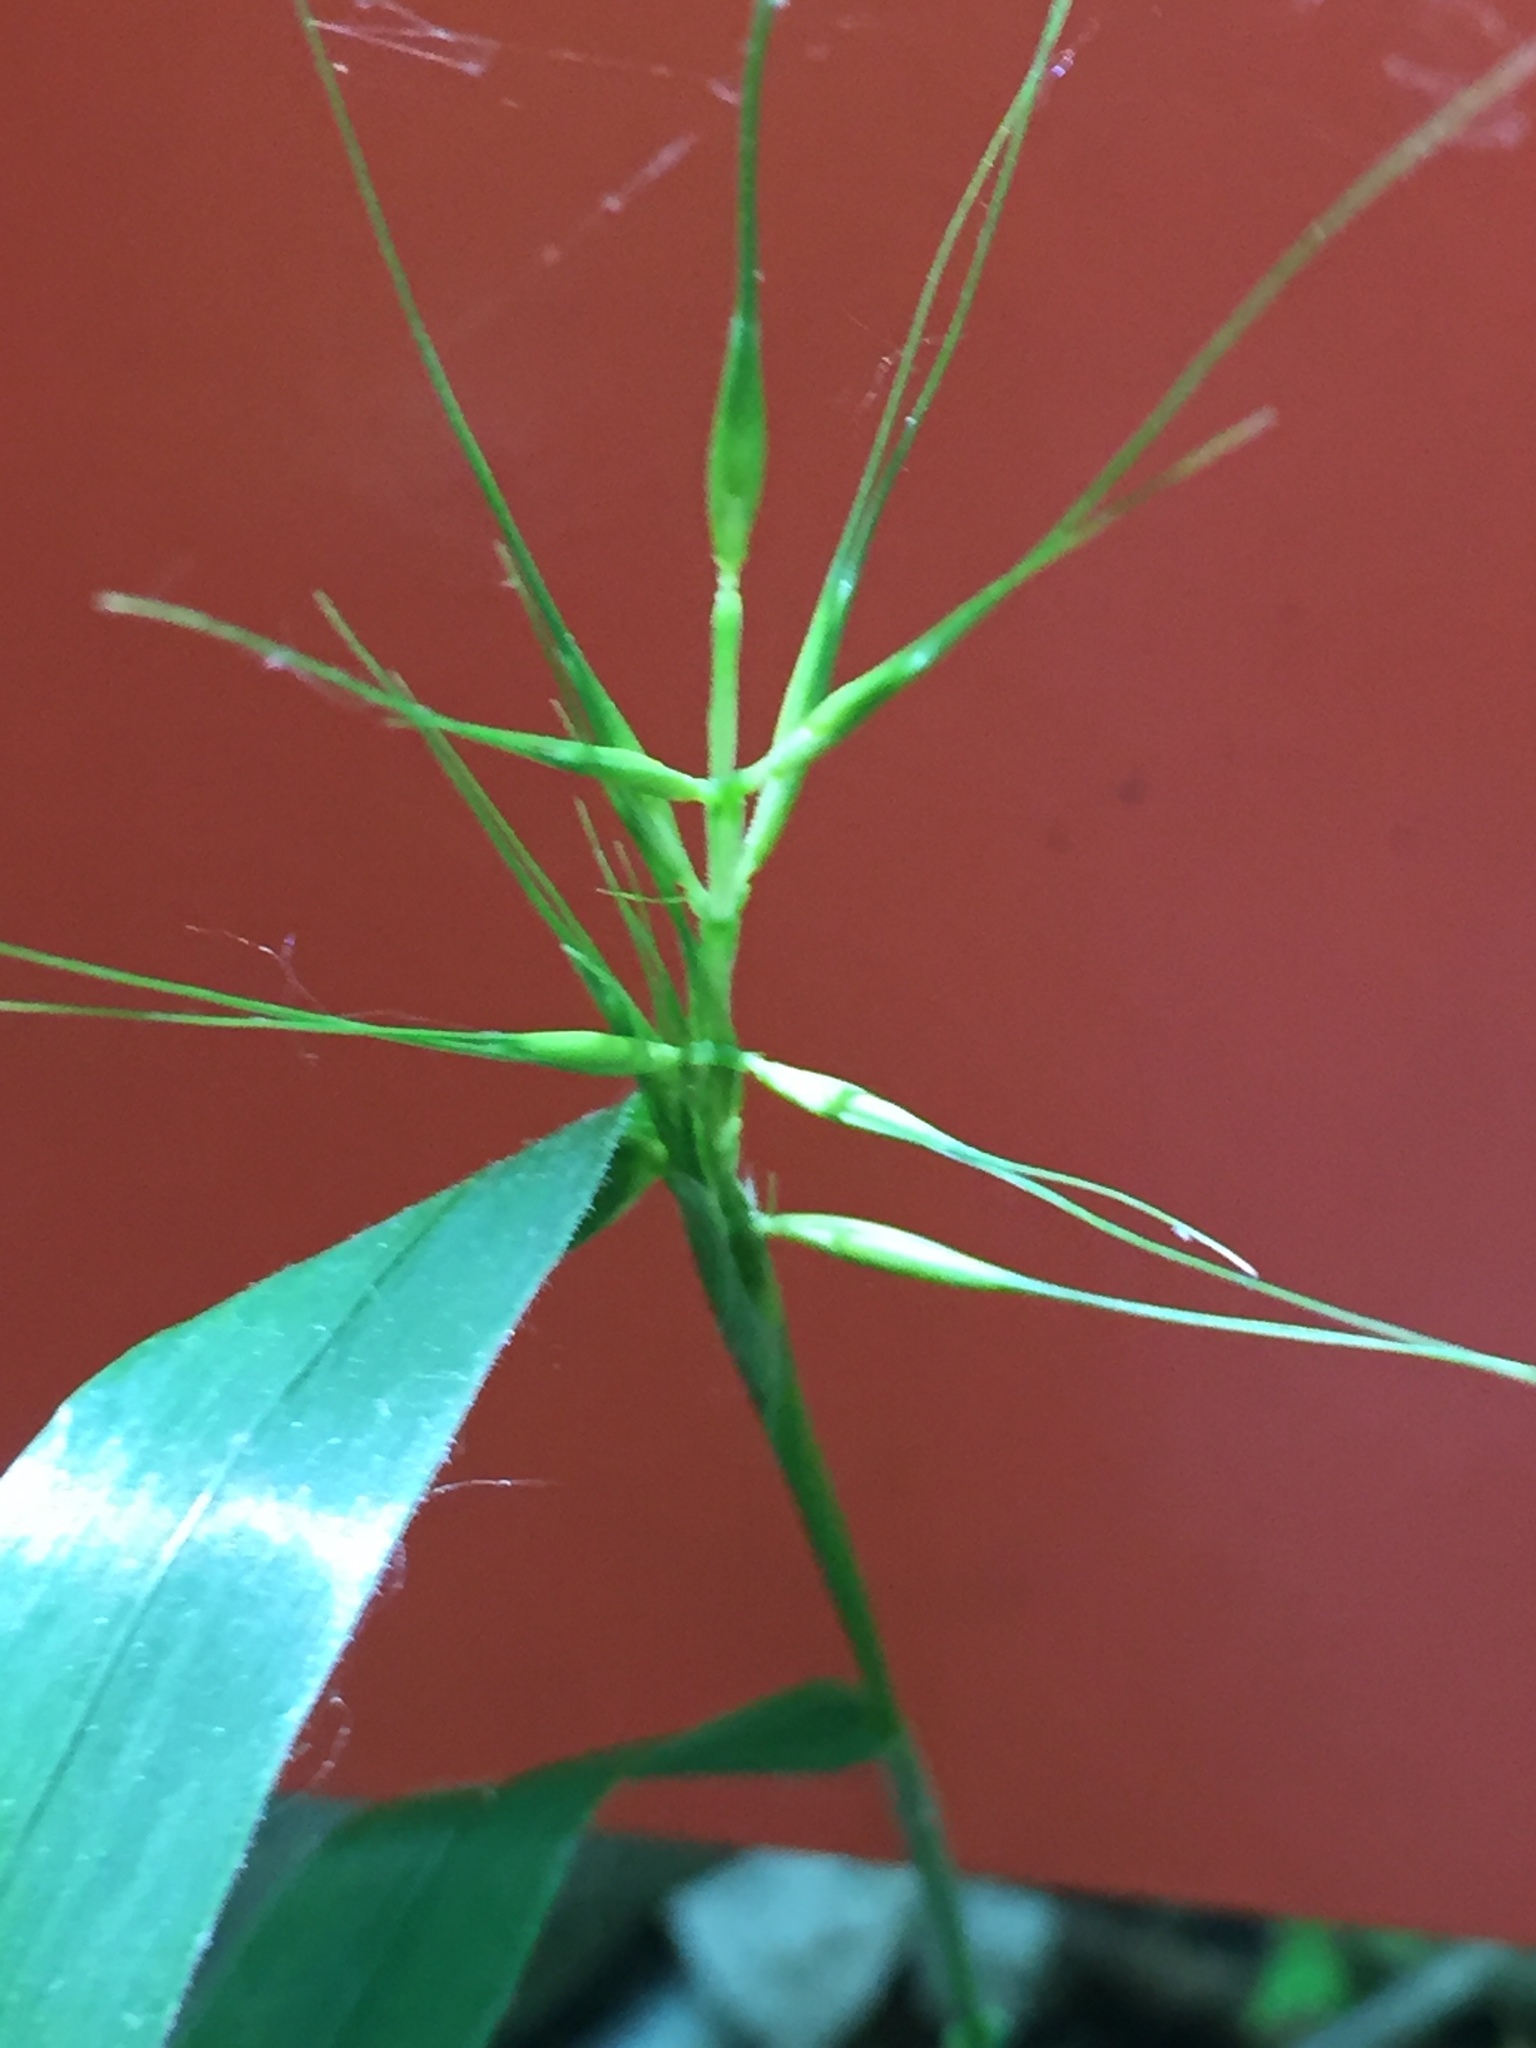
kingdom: Plantae
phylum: Tracheophyta
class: Liliopsida
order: Poales
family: Poaceae
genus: Elymus
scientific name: Elymus hystrix
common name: Bottlebrush grass
